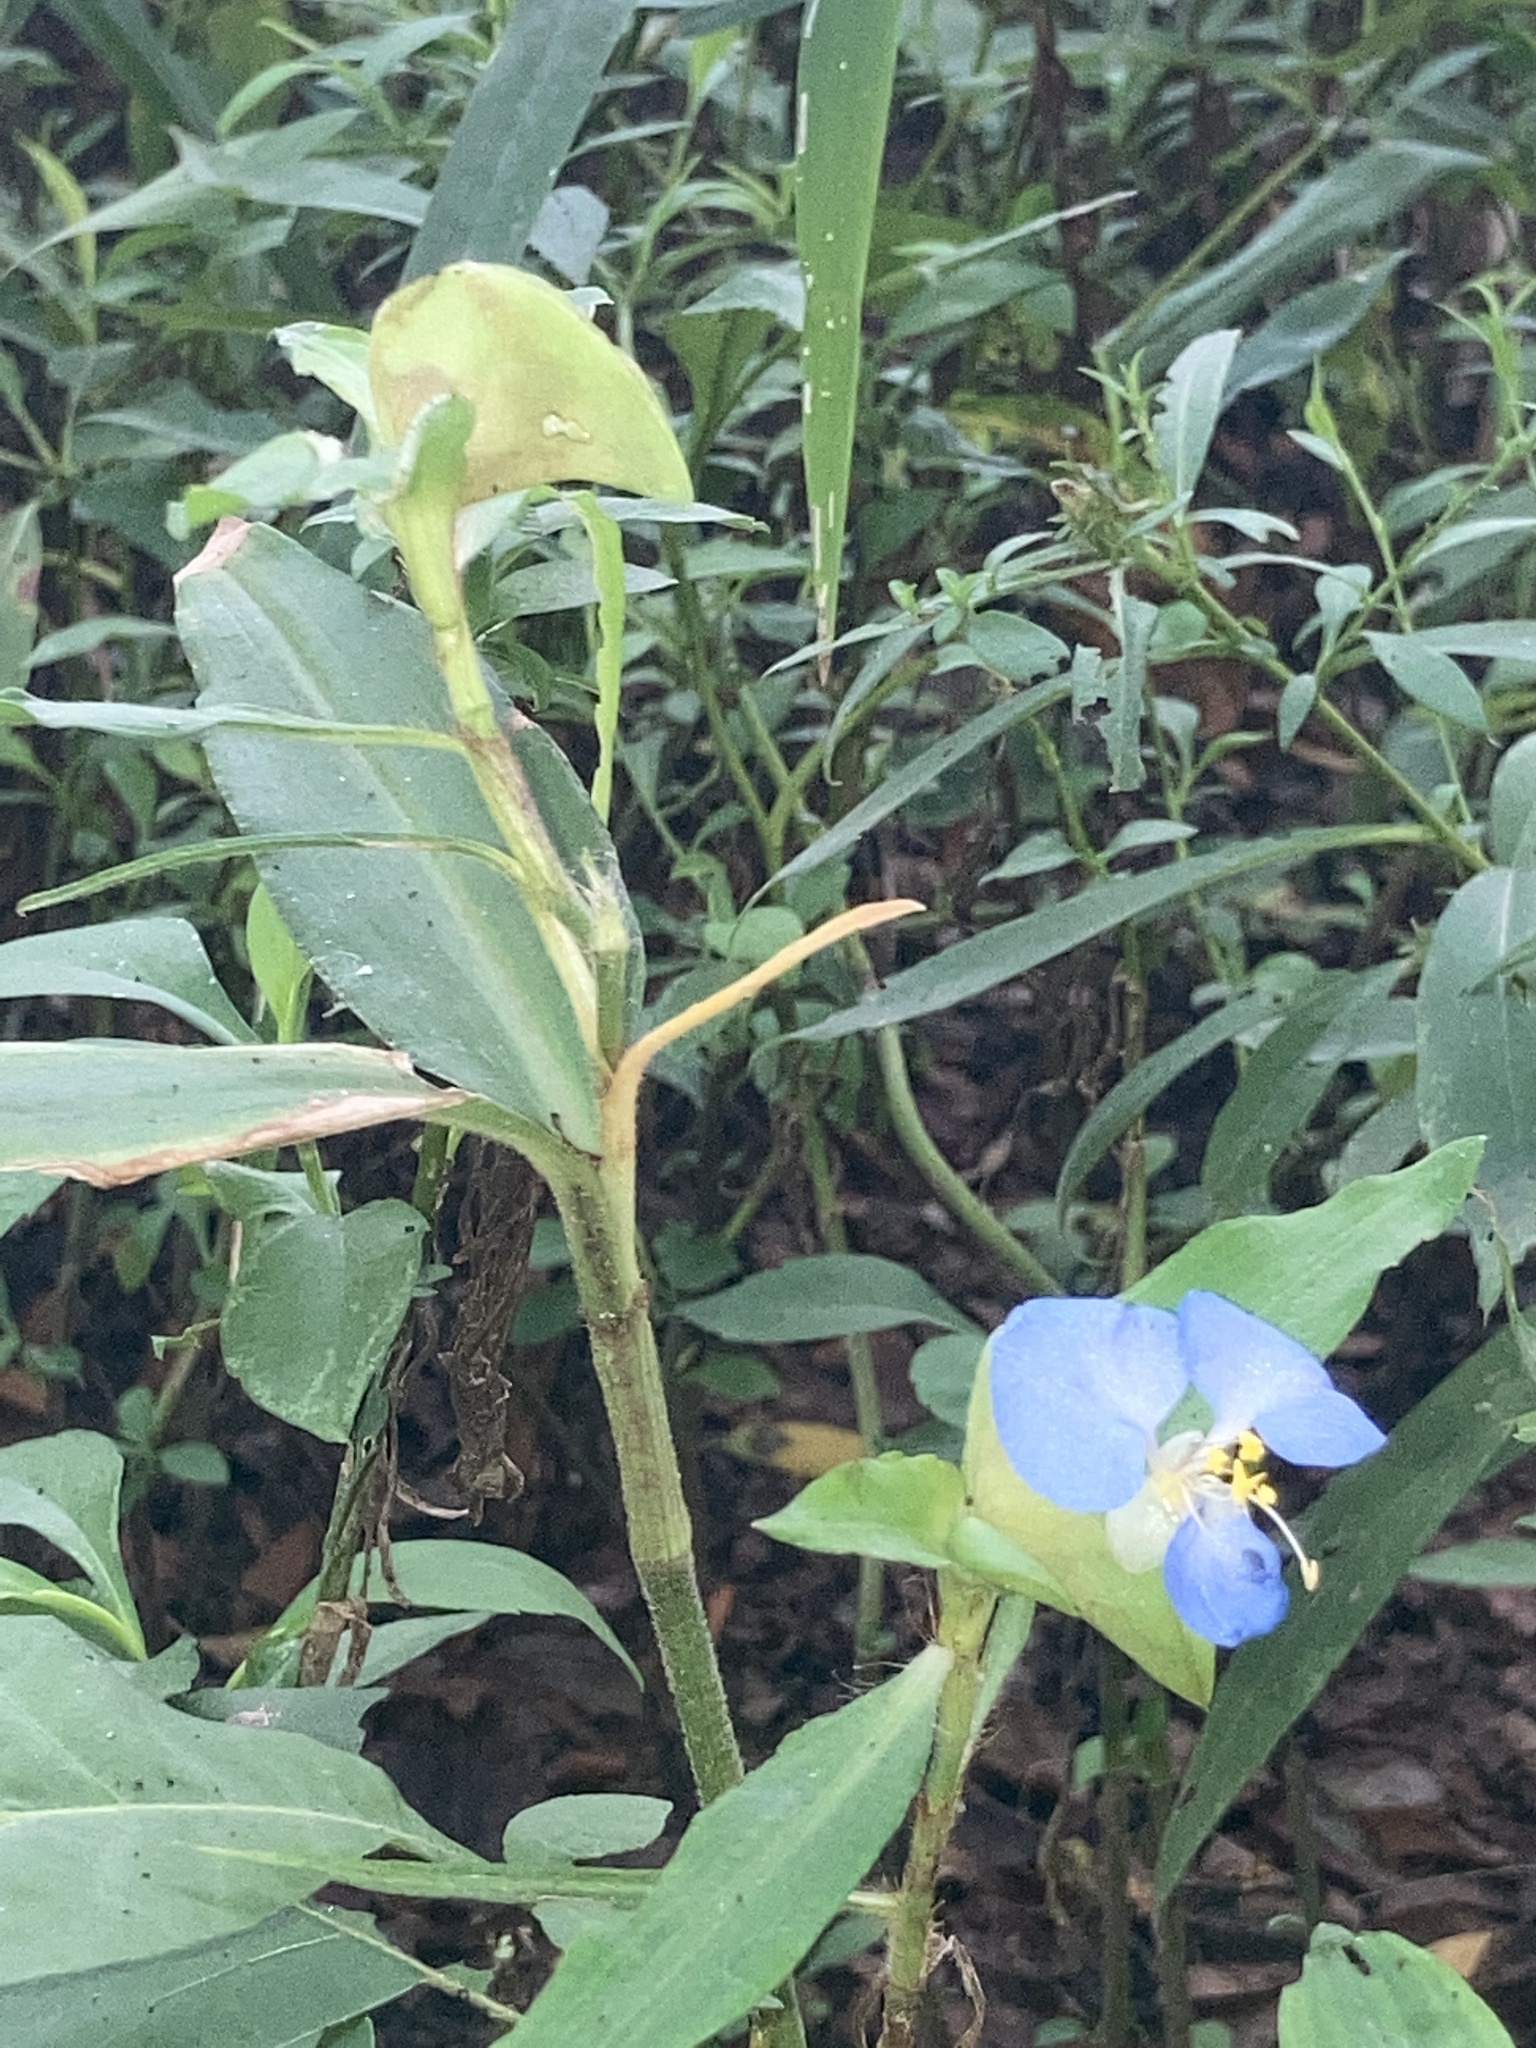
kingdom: Plantae
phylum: Tracheophyta
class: Liliopsida
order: Commelinales
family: Commelinaceae
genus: Commelina
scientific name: Commelina virginica
